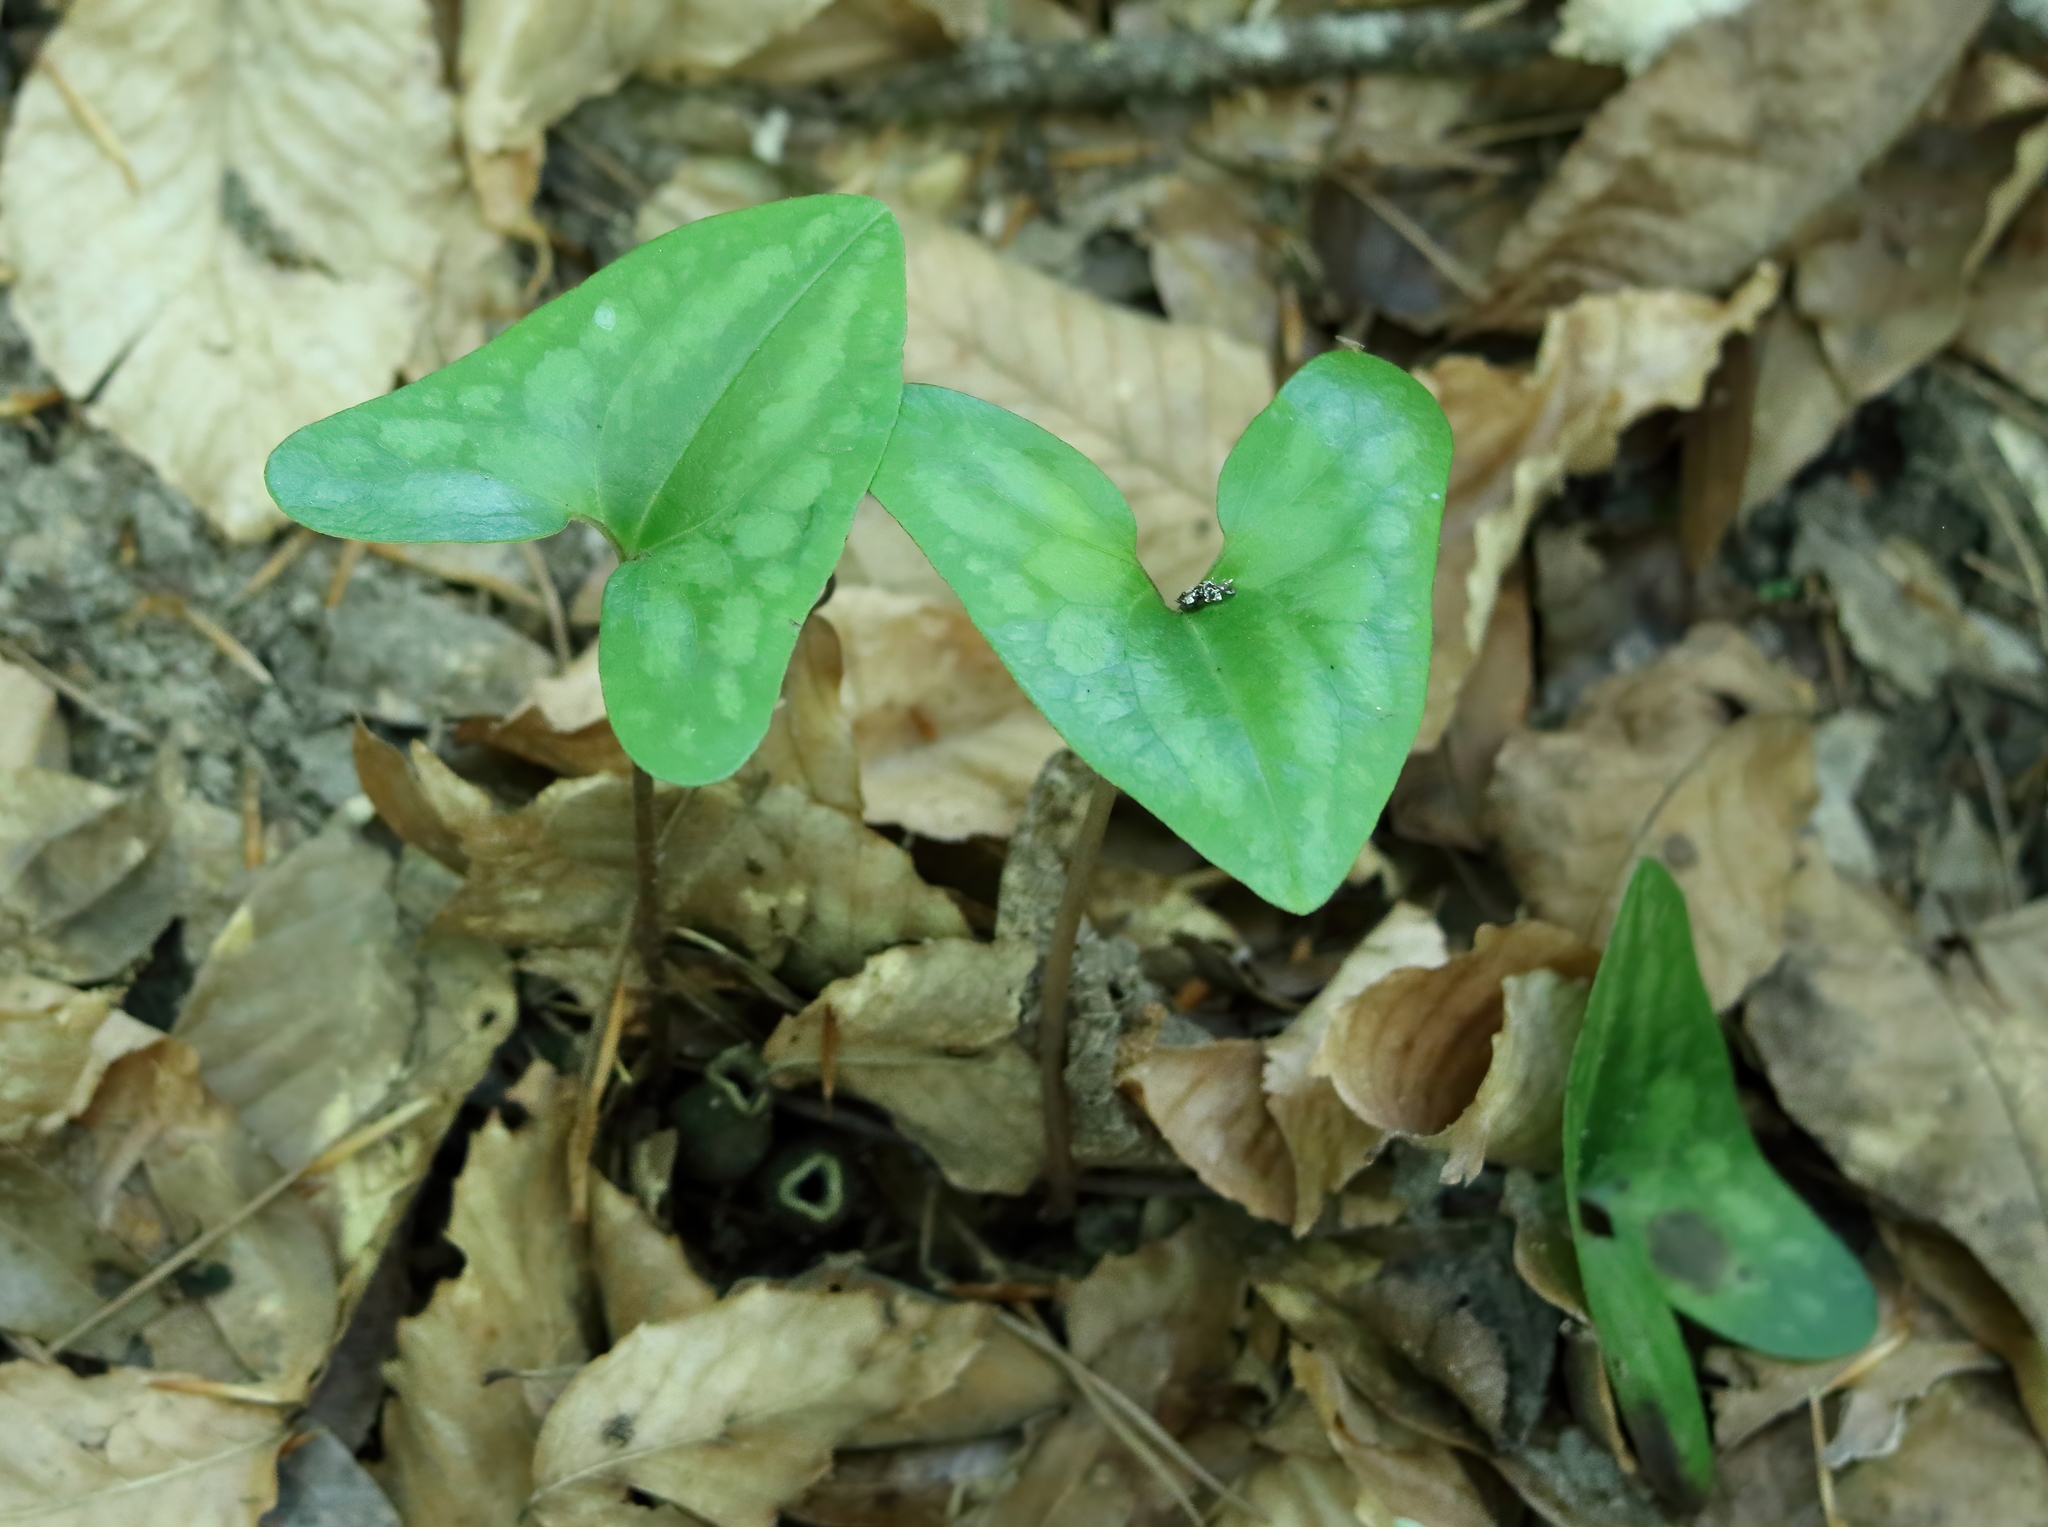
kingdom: Plantae
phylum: Tracheophyta
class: Magnoliopsida
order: Piperales
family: Aristolochiaceae
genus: Hexastylis
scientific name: Hexastylis arifolia
